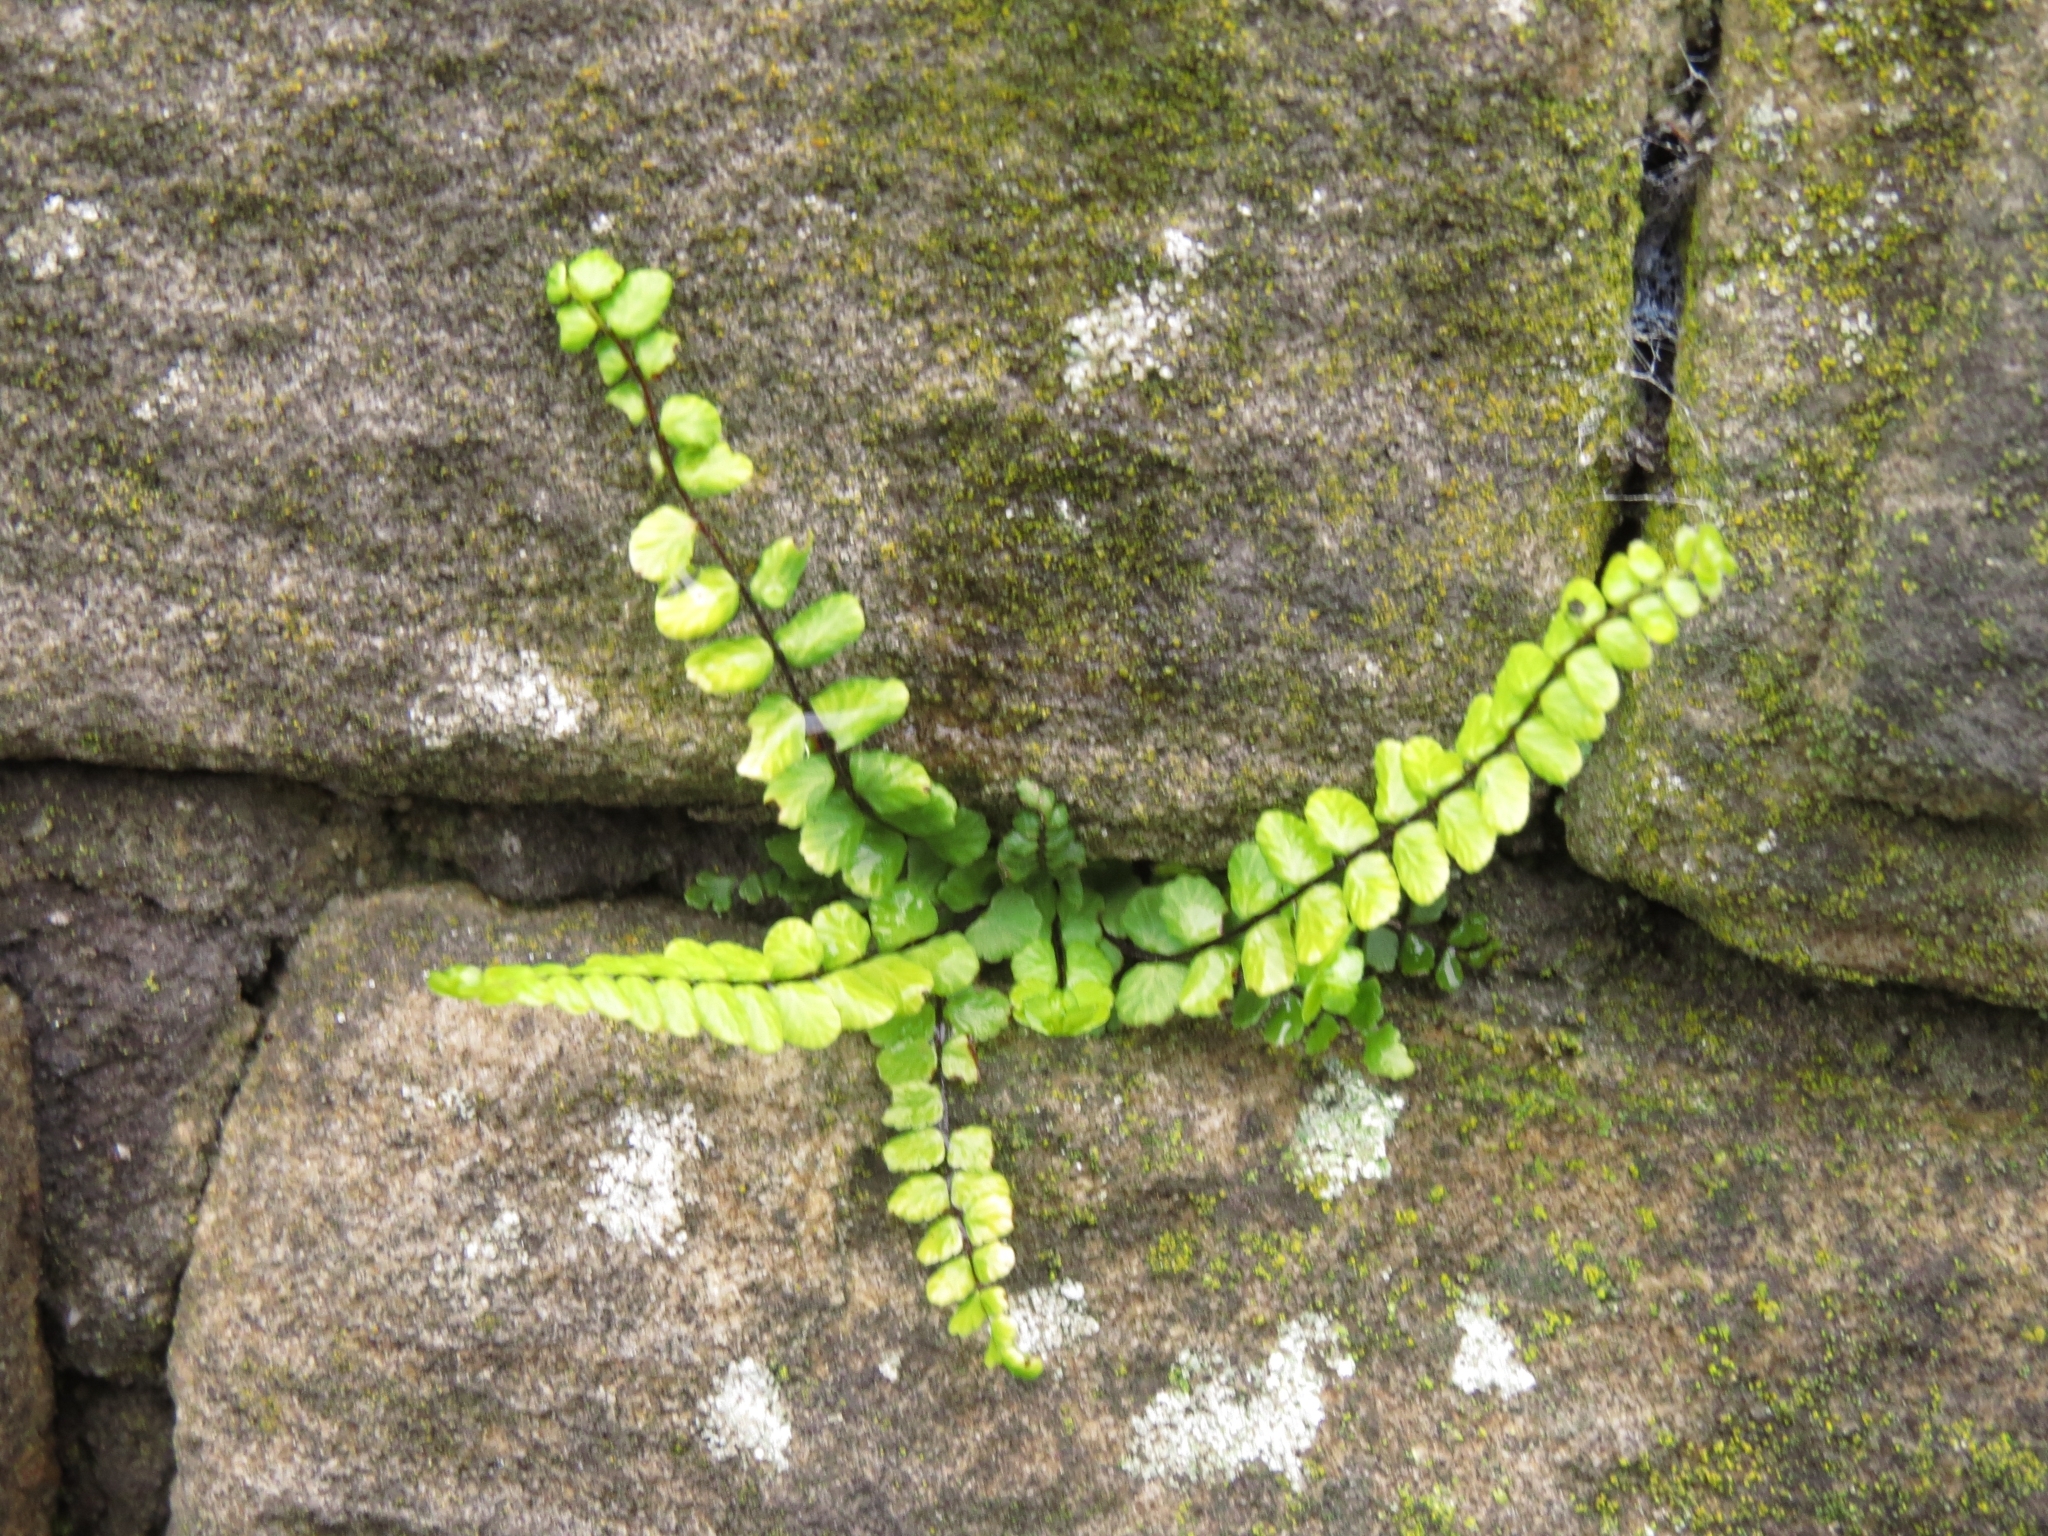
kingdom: Plantae
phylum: Tracheophyta
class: Polypodiopsida
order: Polypodiales
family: Aspleniaceae
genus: Asplenium
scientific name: Asplenium trichomanes
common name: Maidenhair spleenwort
